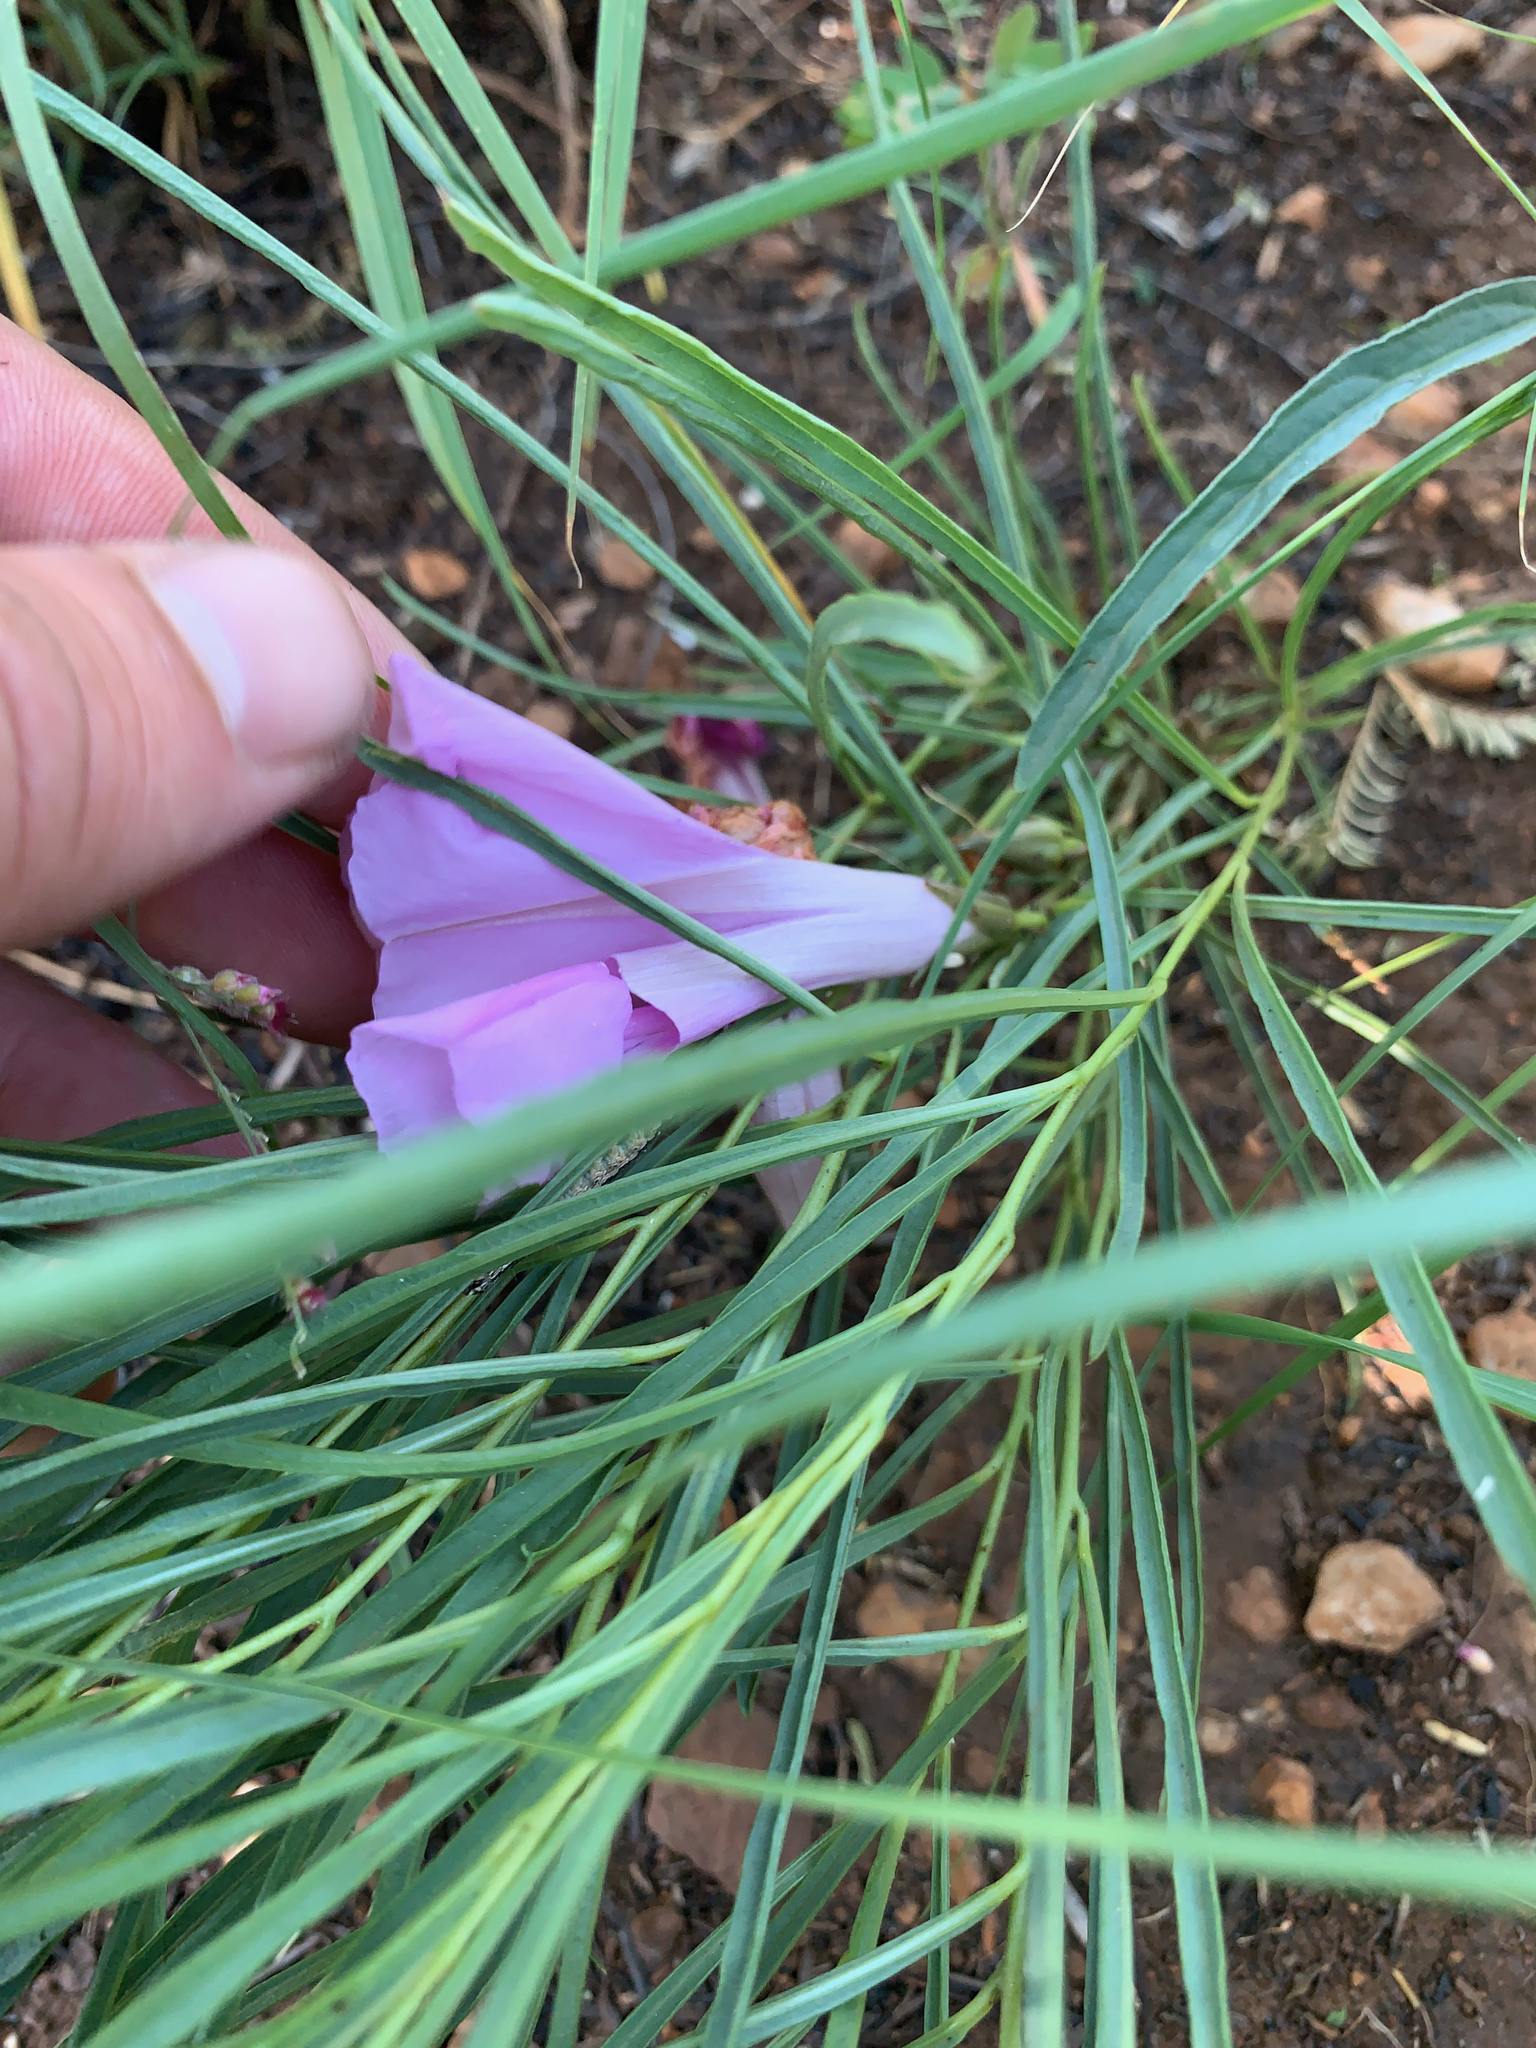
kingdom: Plantae
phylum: Tracheophyta
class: Magnoliopsida
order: Solanales
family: Convolvulaceae
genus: Ipomoea
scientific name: Ipomoea bolusiana
